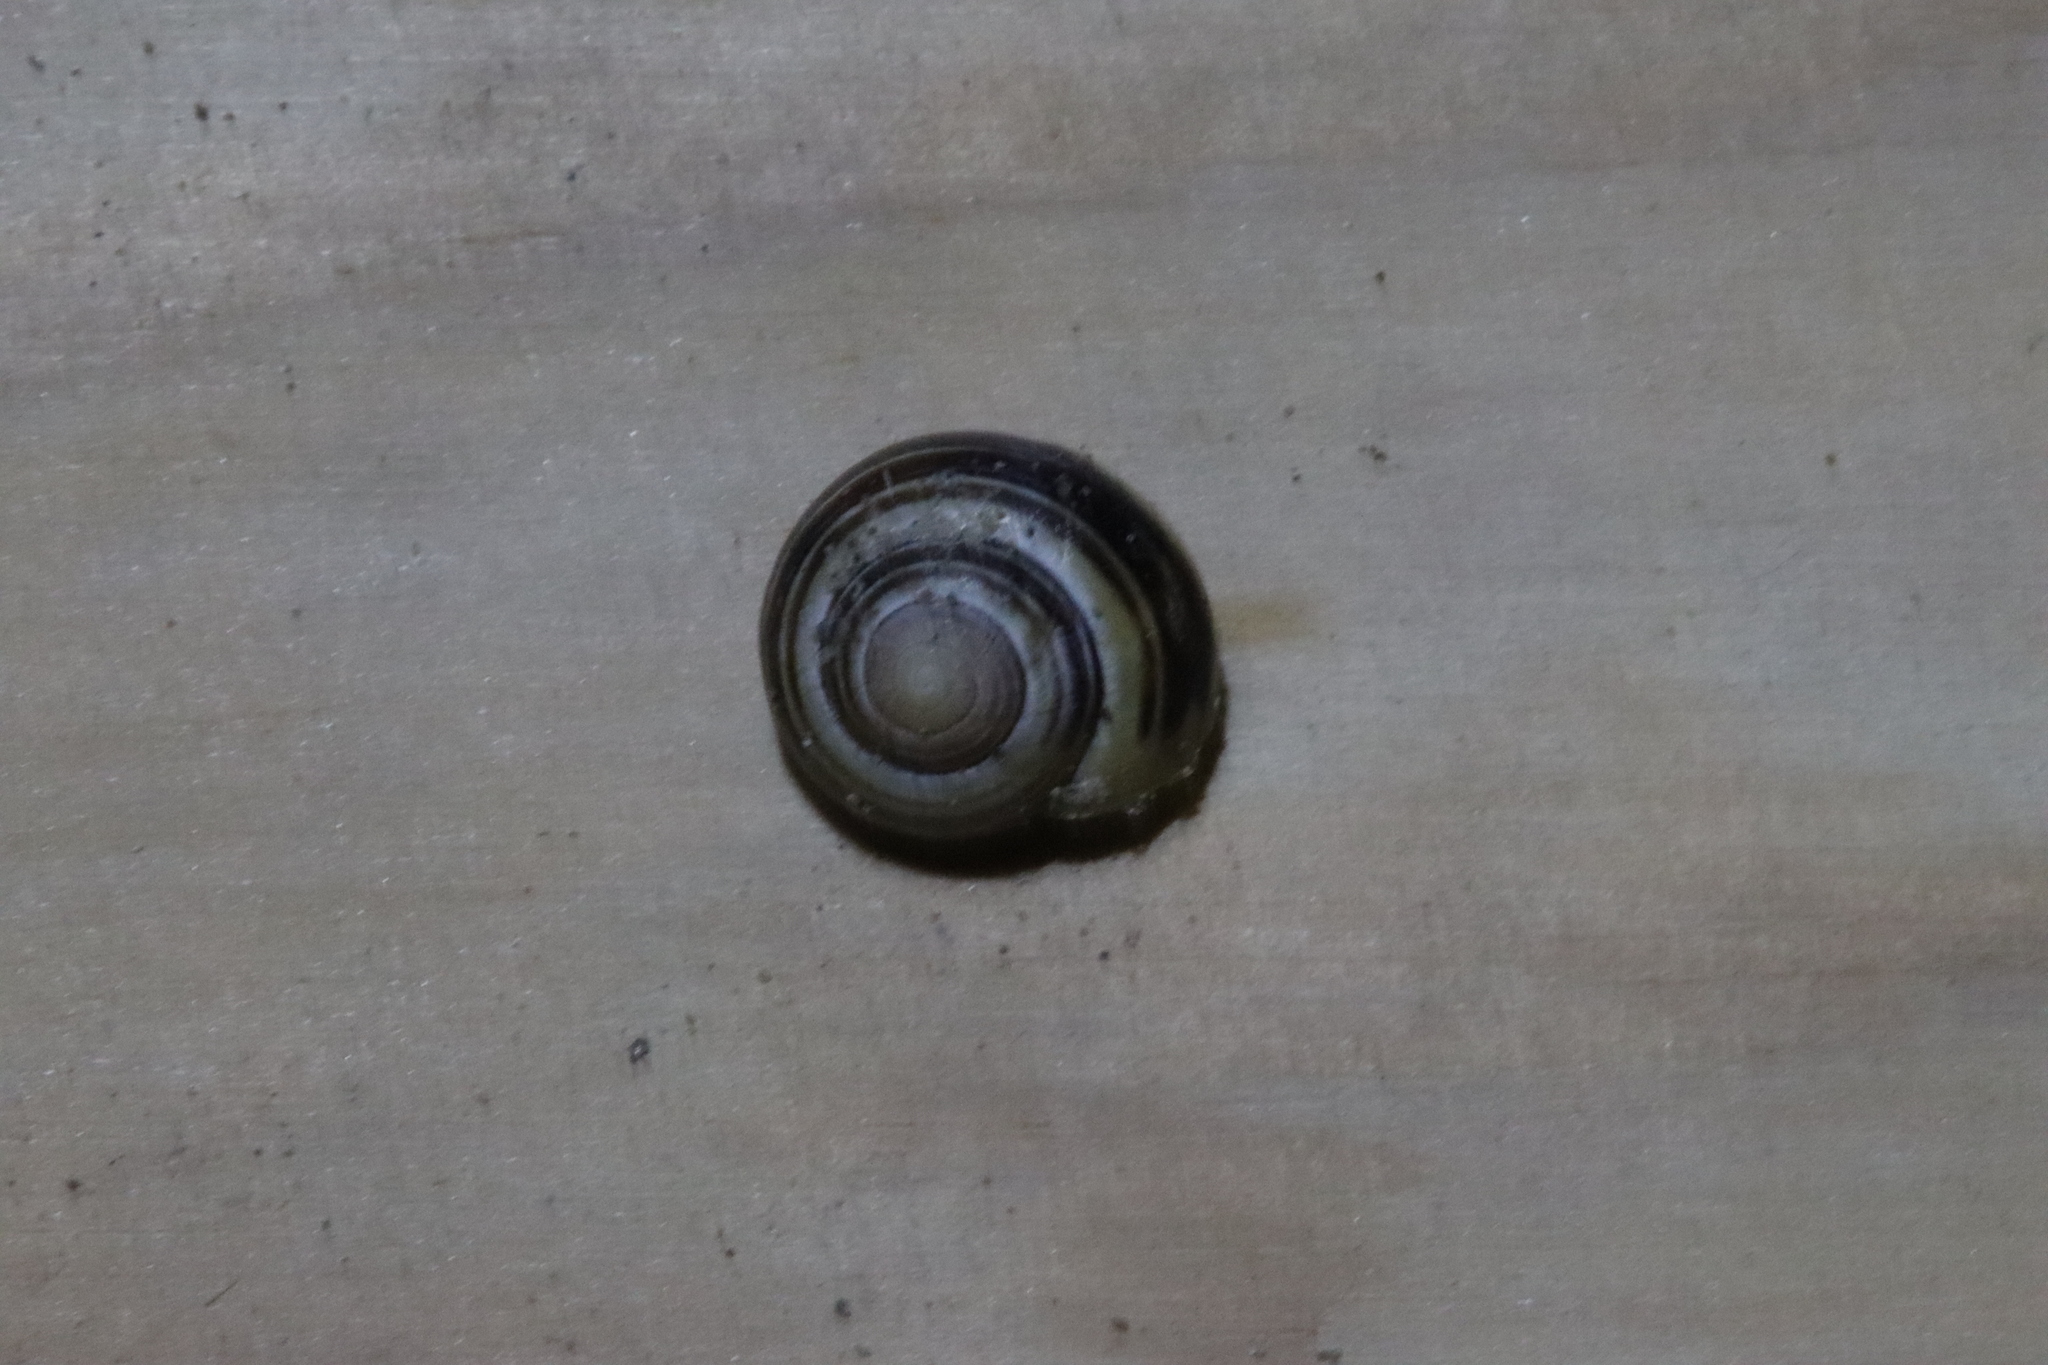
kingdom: Animalia
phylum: Mollusca
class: Gastropoda
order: Stylommatophora
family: Helicidae
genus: Cepaea
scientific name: Cepaea nemoralis
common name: Grovesnail
